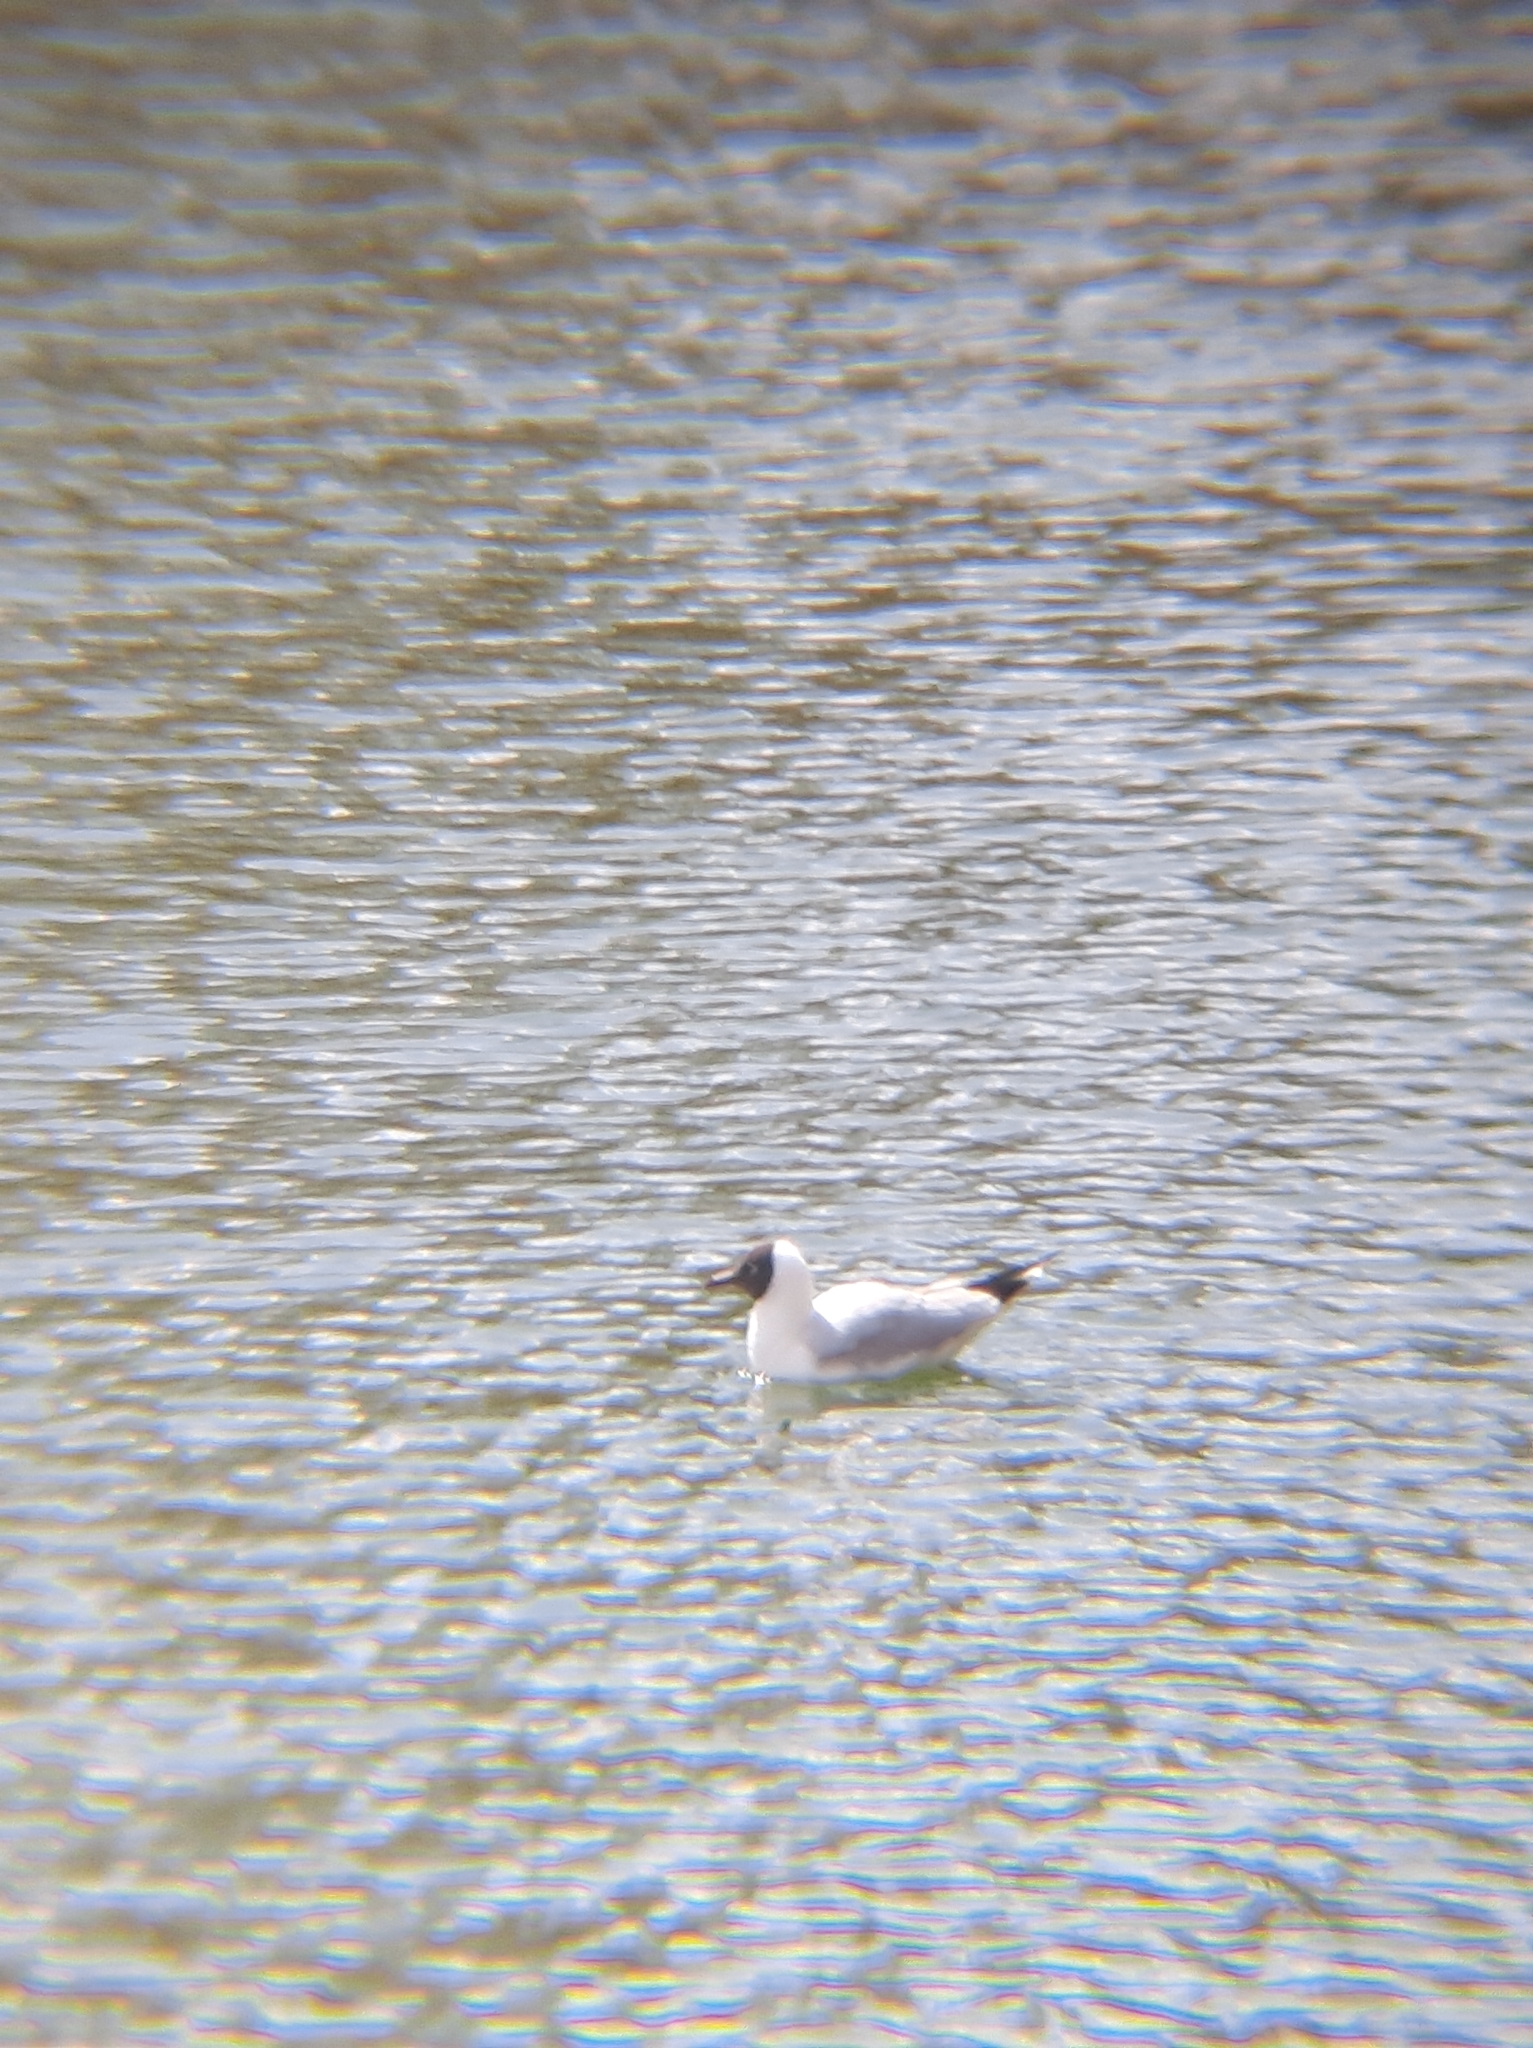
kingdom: Animalia
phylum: Chordata
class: Aves
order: Charadriiformes
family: Laridae
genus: Chroicocephalus
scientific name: Chroicocephalus ridibundus
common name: Black-headed gull
